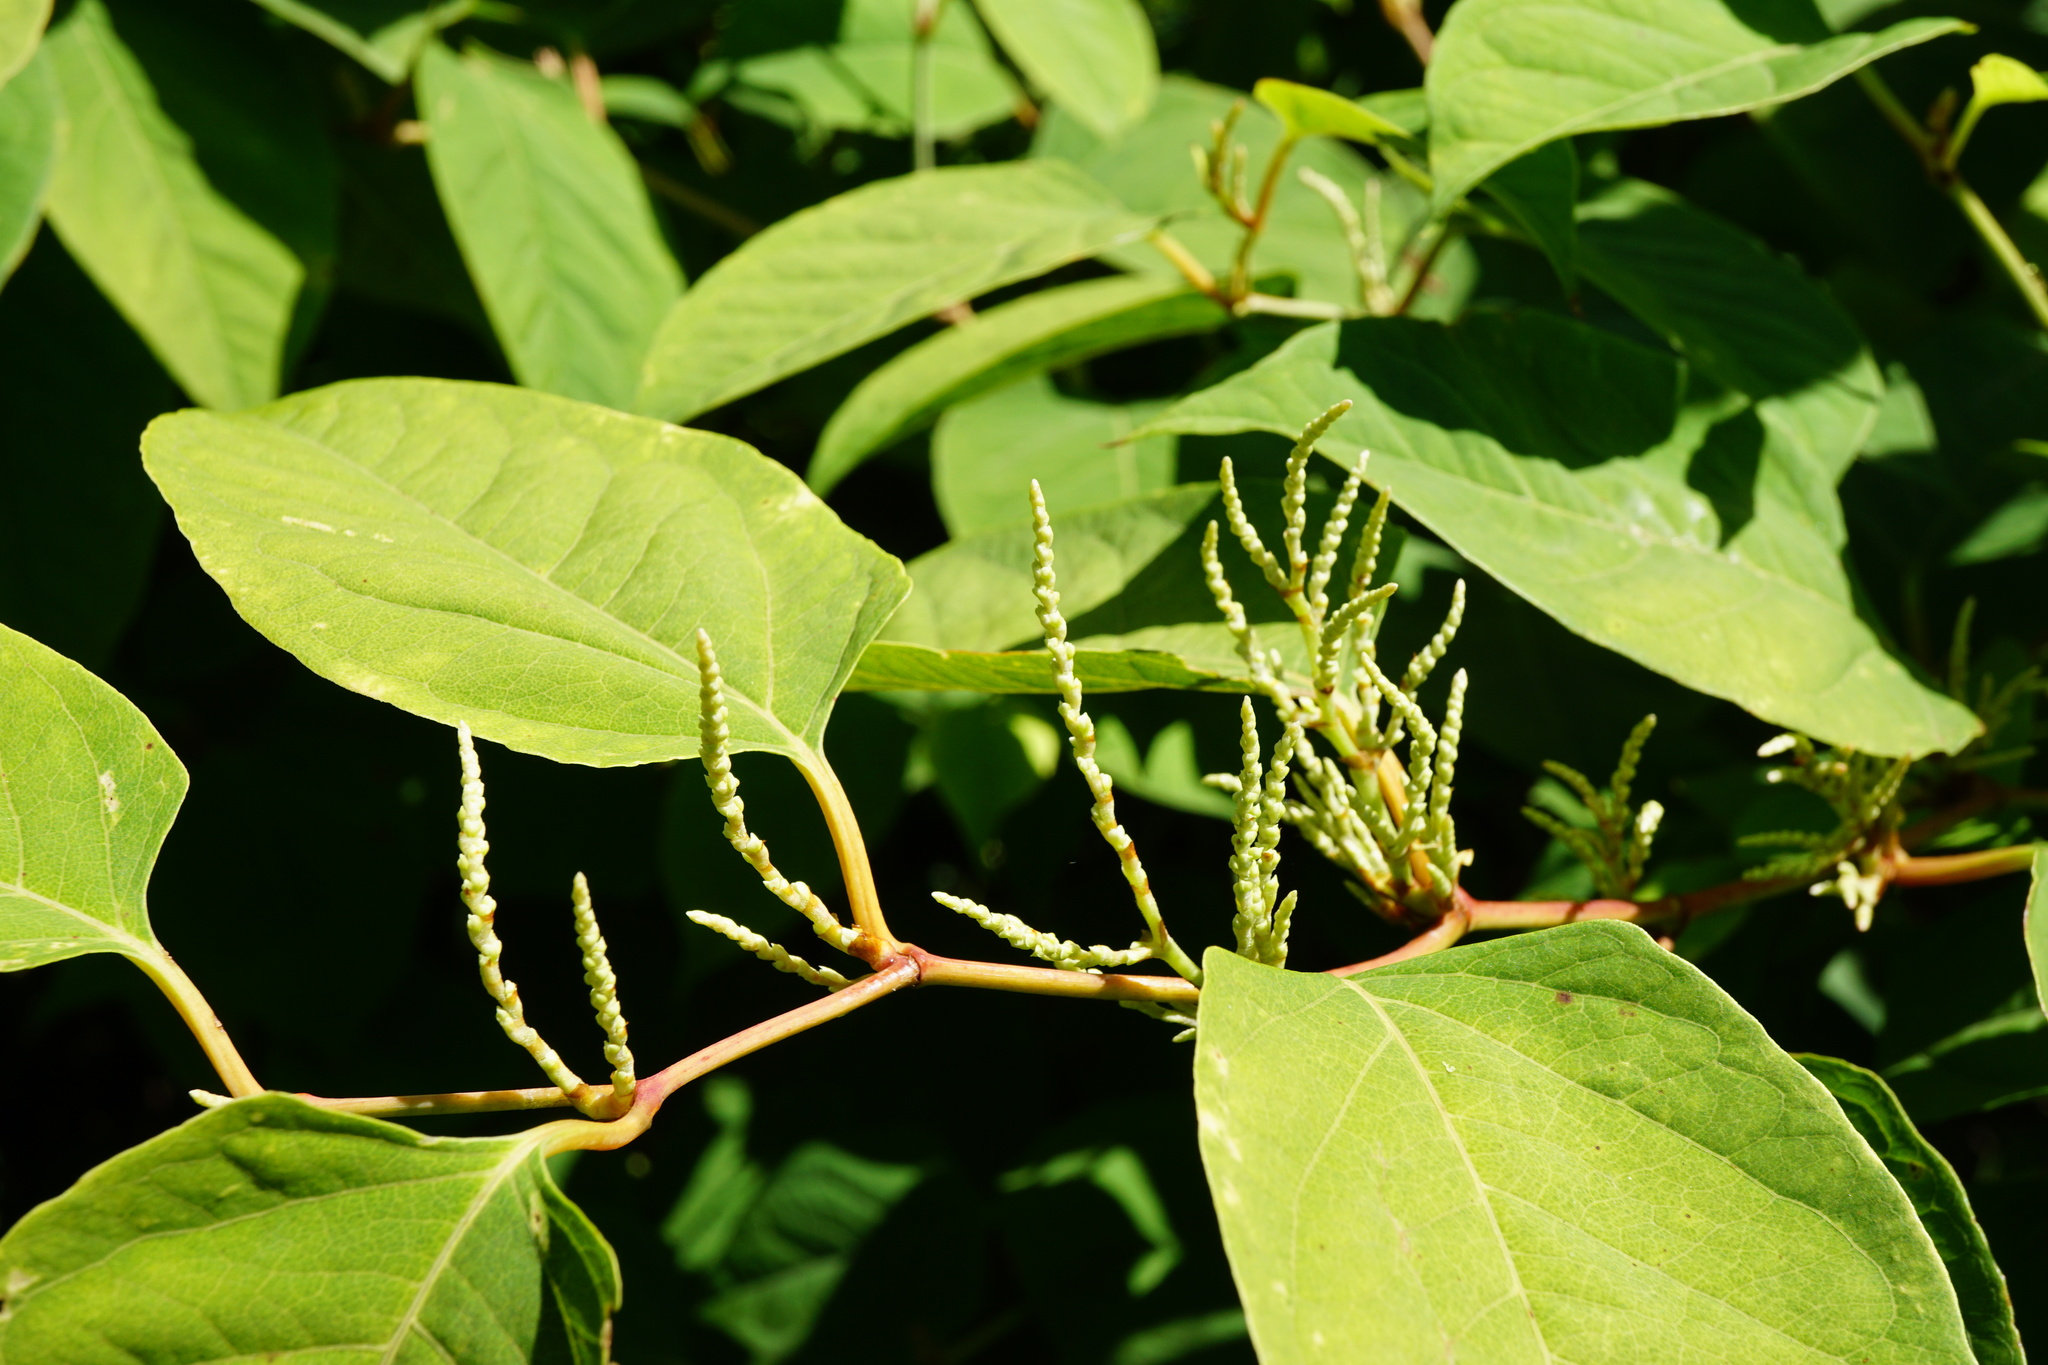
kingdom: Plantae
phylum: Tracheophyta
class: Magnoliopsida
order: Caryophyllales
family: Polygonaceae
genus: Reynoutria
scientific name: Reynoutria bohemica
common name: Bohemian knotweed
